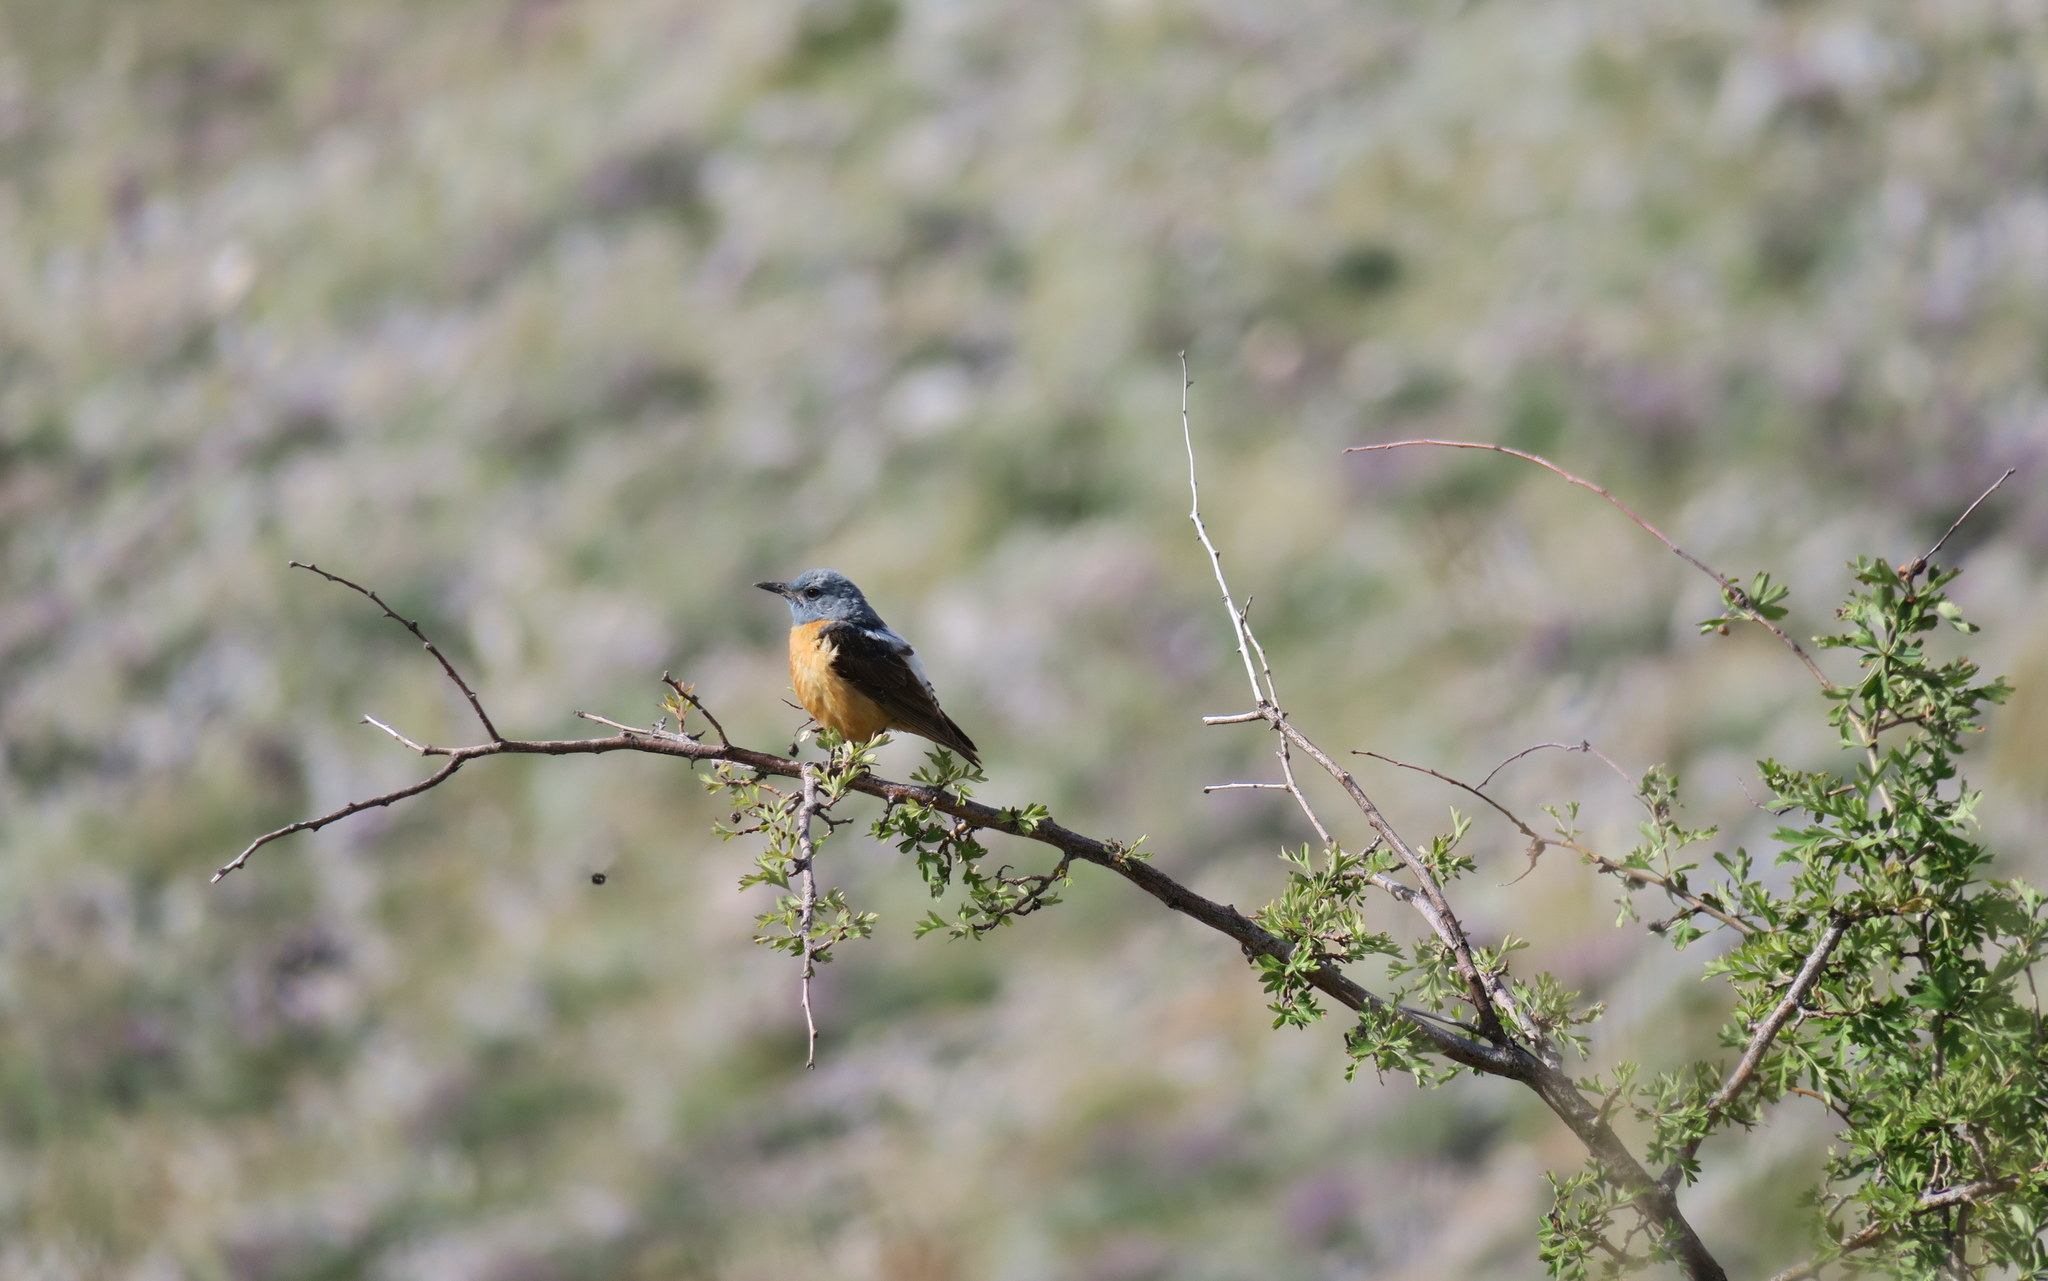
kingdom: Animalia
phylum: Chordata
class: Aves
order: Passeriformes
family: Muscicapidae
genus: Monticola
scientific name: Monticola saxatilis
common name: Rufous-tailed rock thrush
